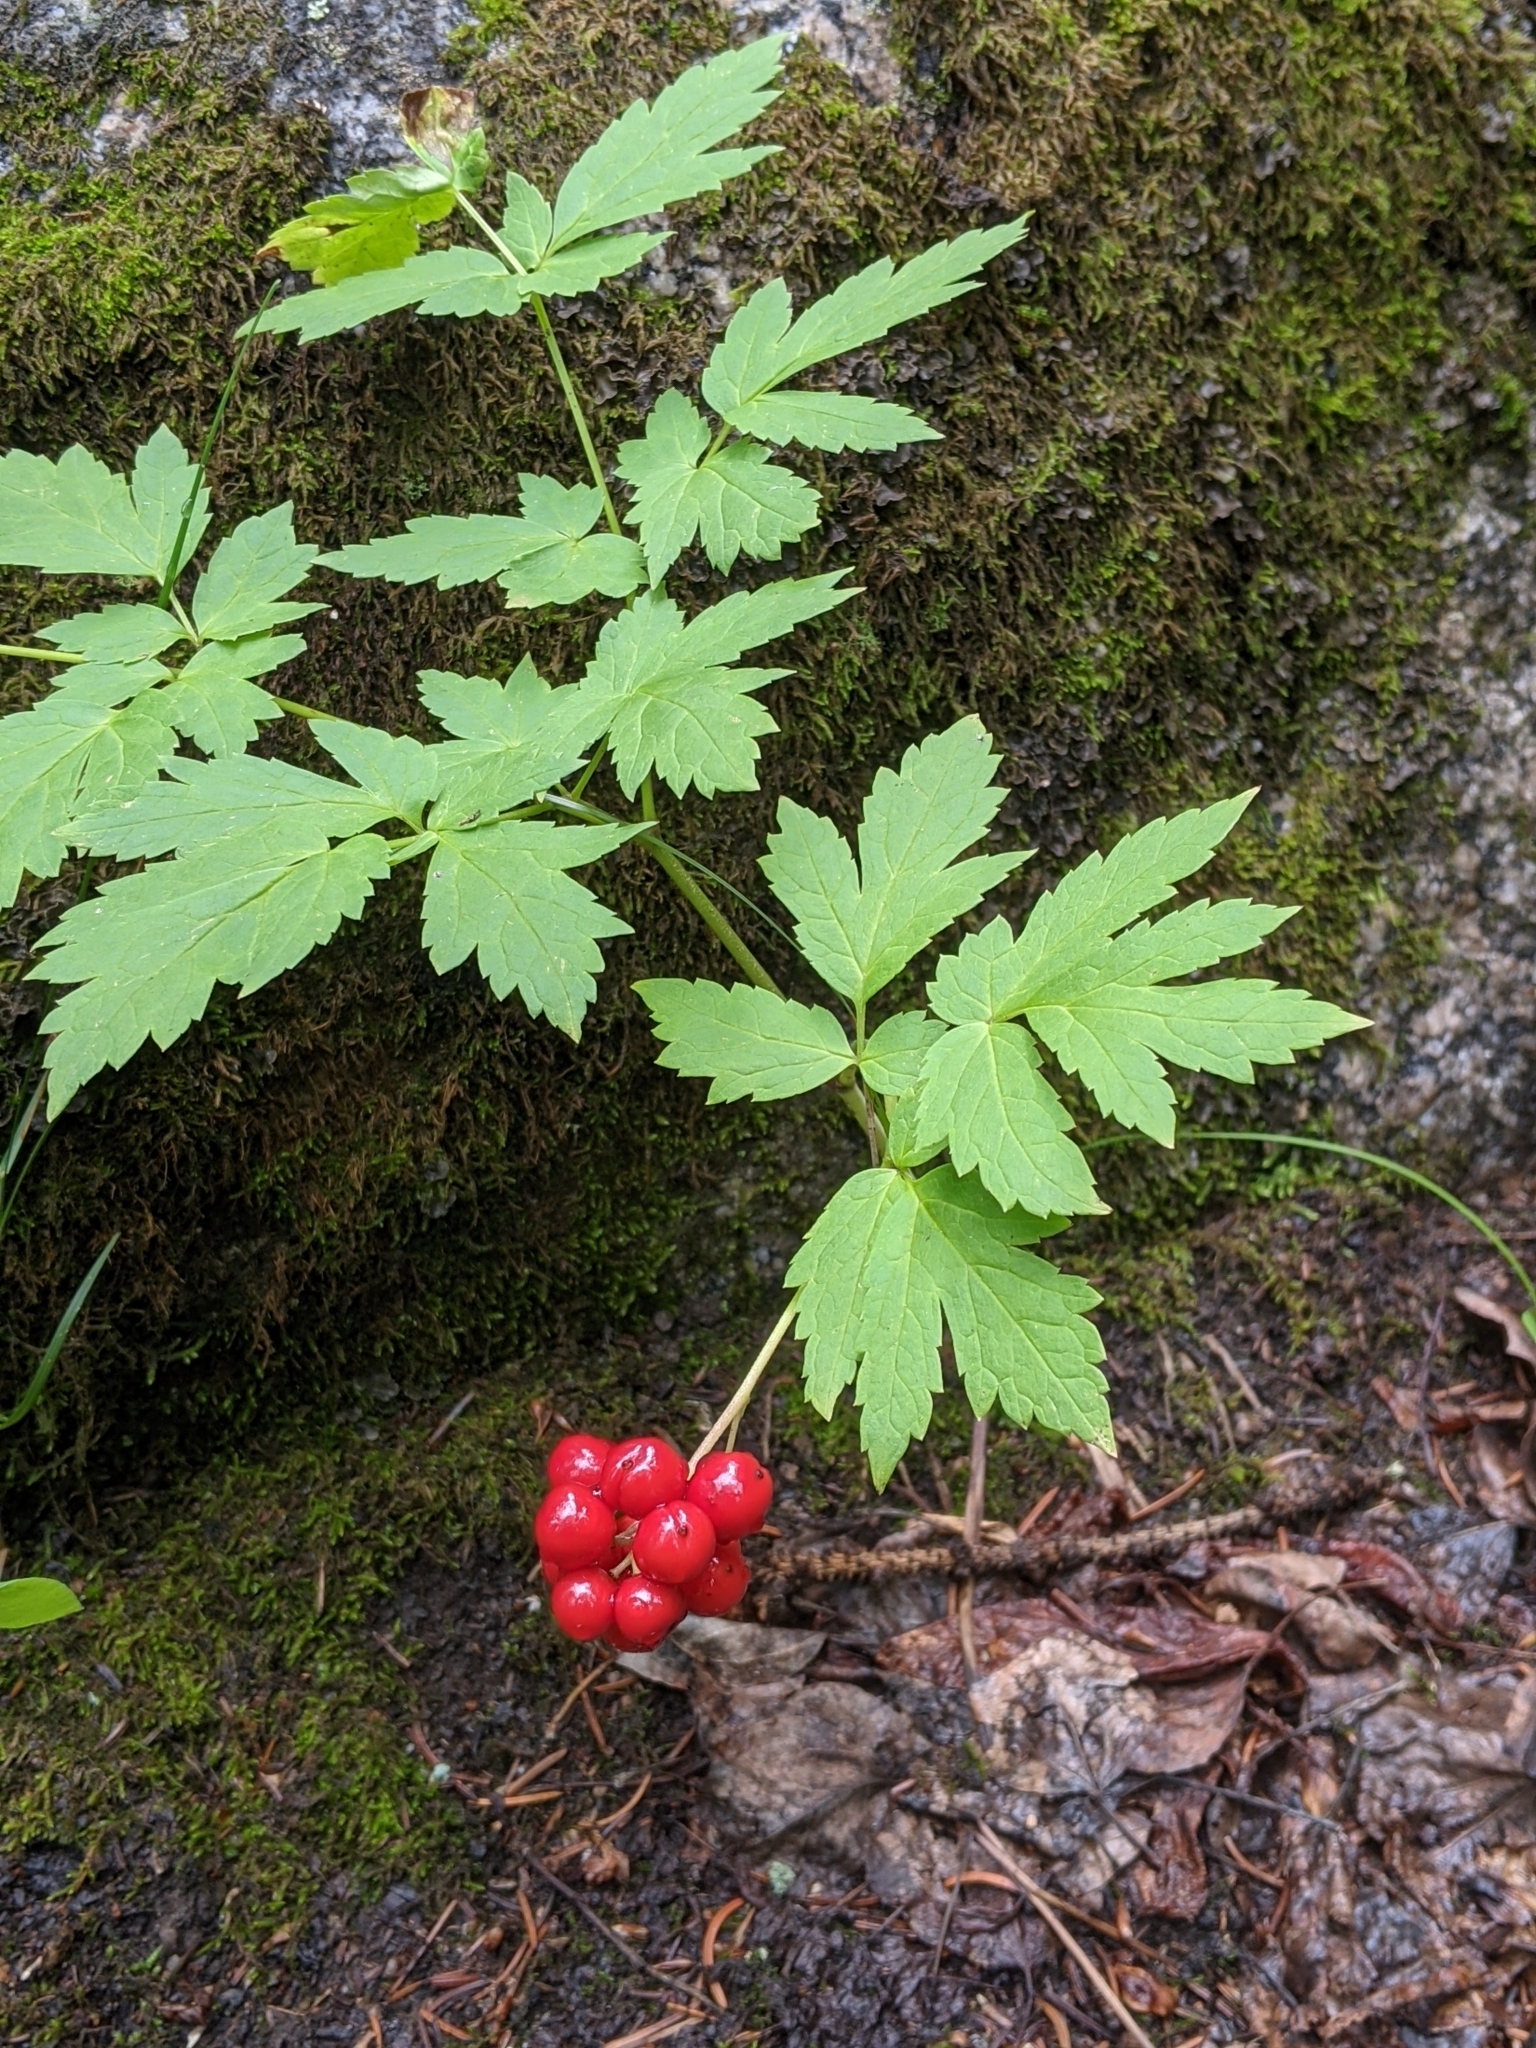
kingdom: Plantae
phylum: Tracheophyta
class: Magnoliopsida
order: Ranunculales
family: Ranunculaceae
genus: Actaea
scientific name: Actaea rubra
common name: Red baneberry
